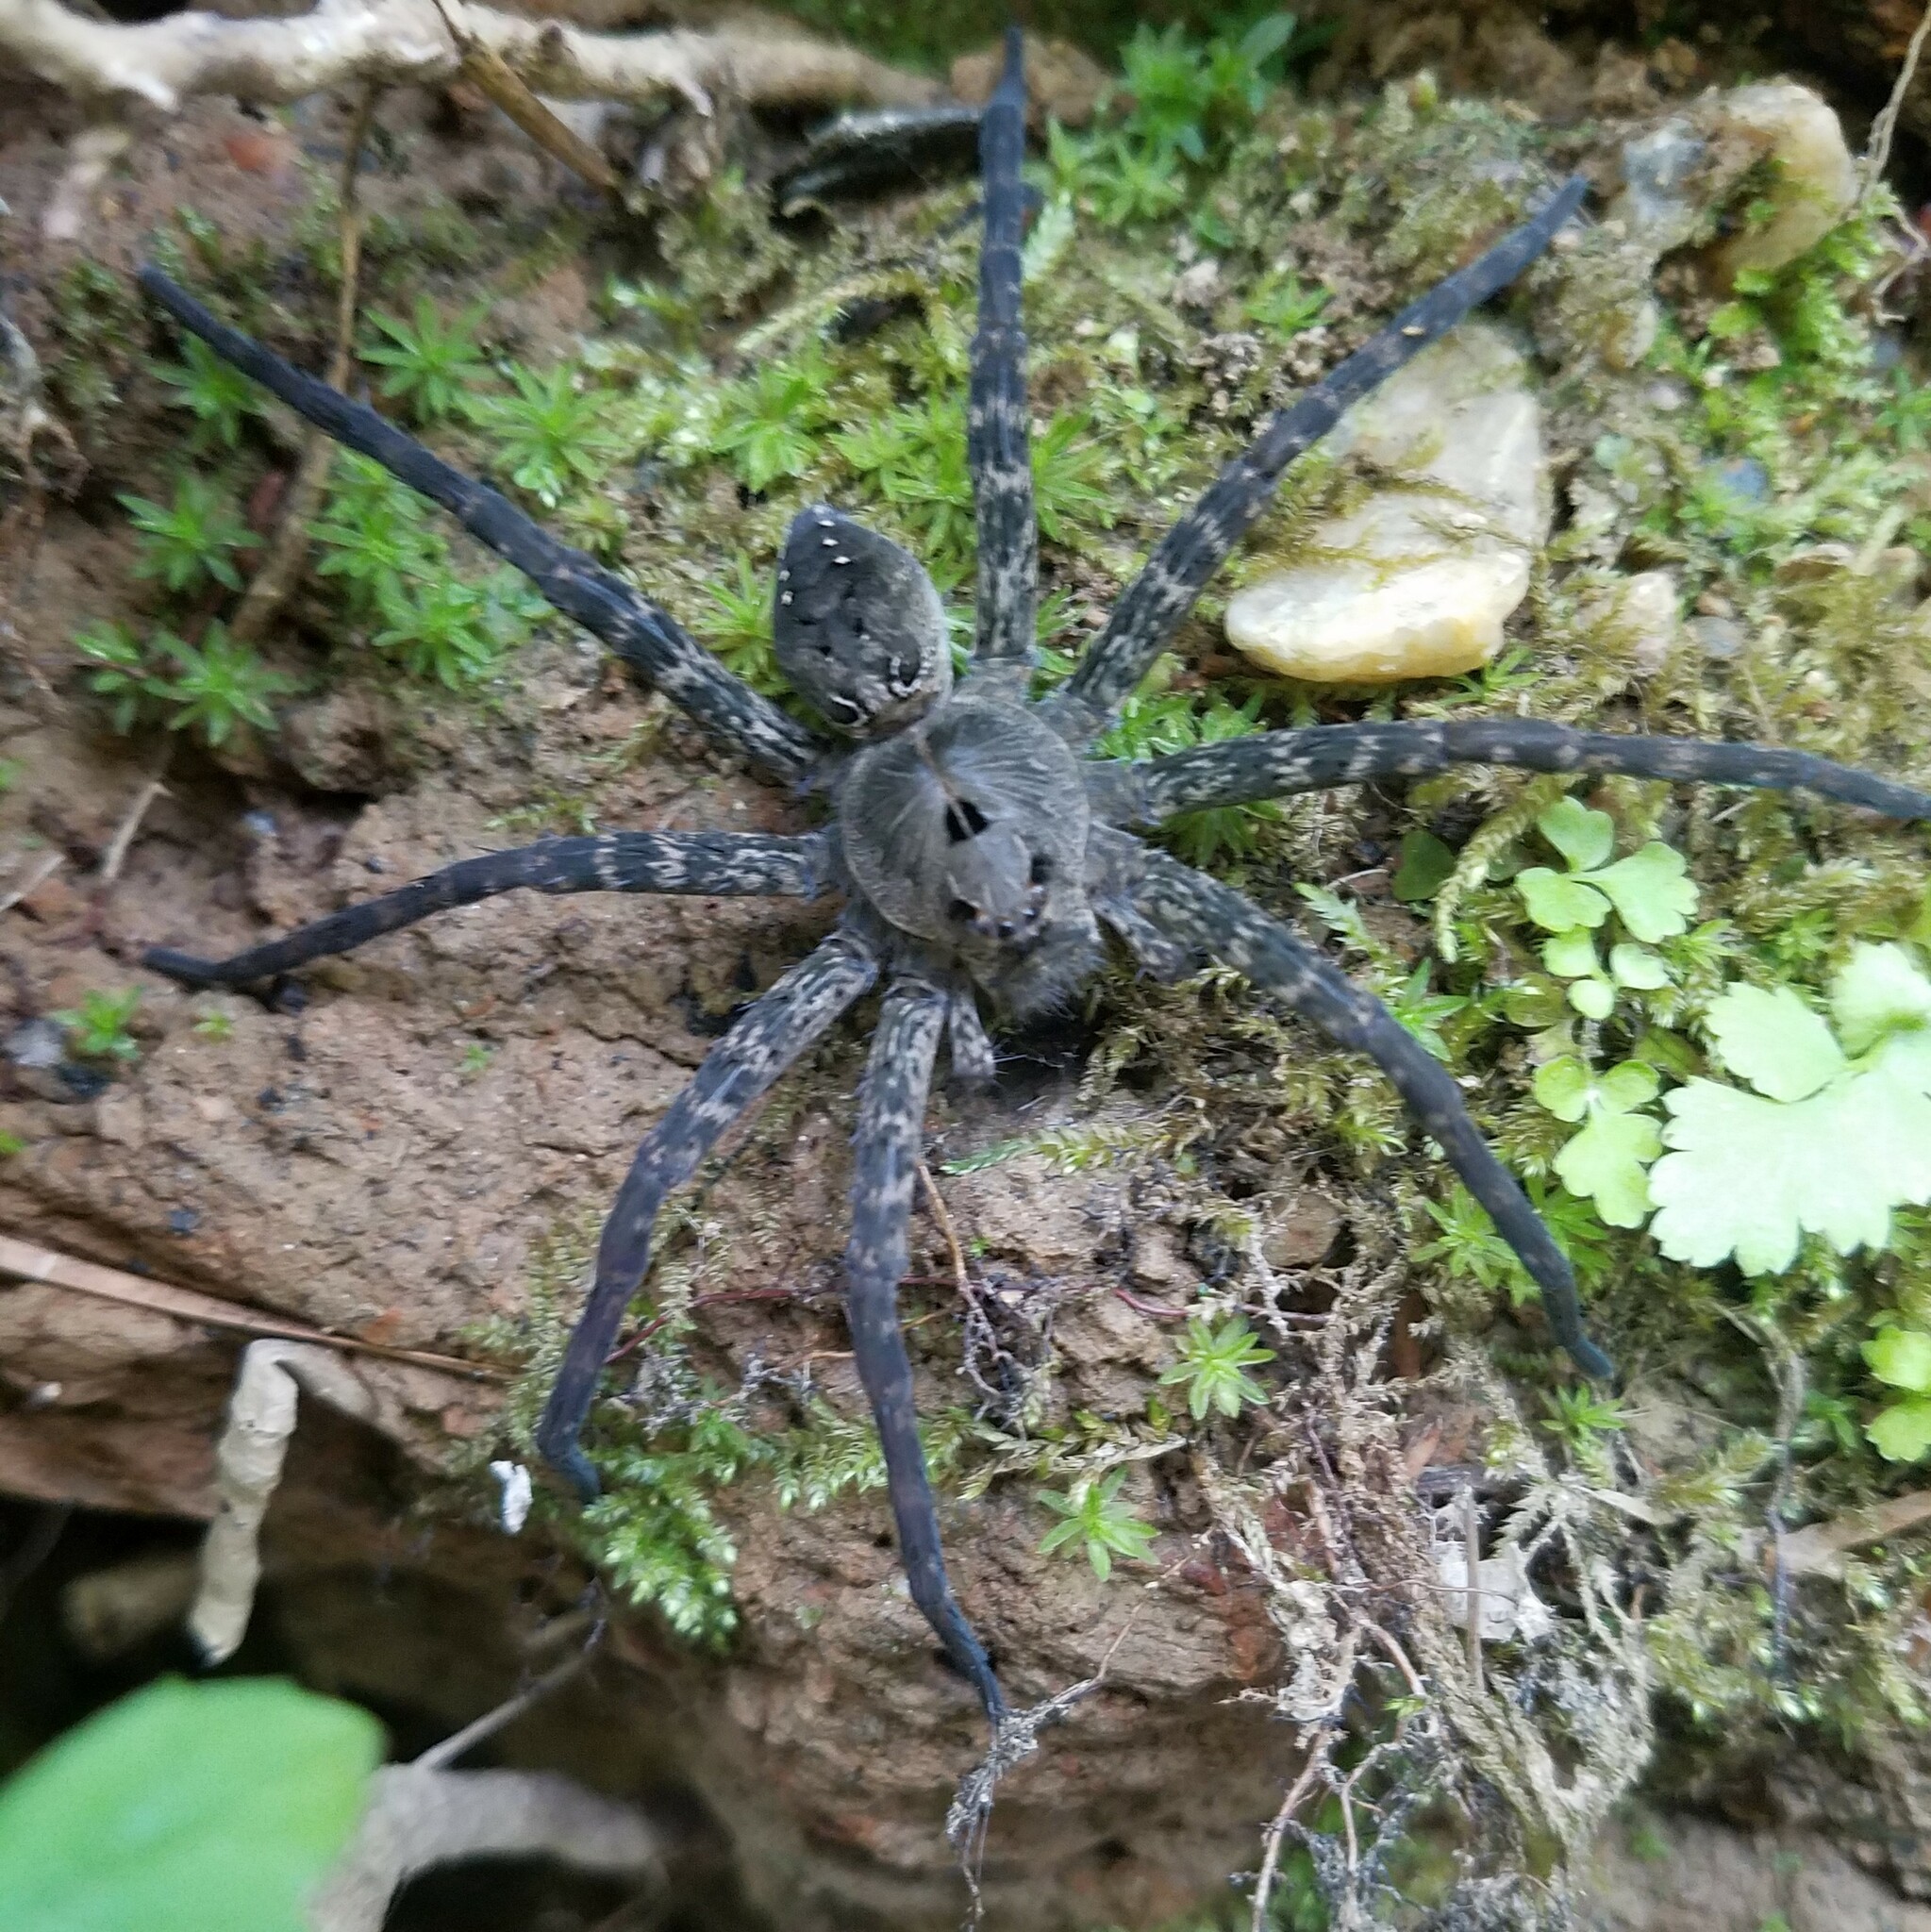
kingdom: Animalia
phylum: Arthropoda
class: Arachnida
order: Araneae
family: Pisauridae
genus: Dolomedes
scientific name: Dolomedes vittatus
